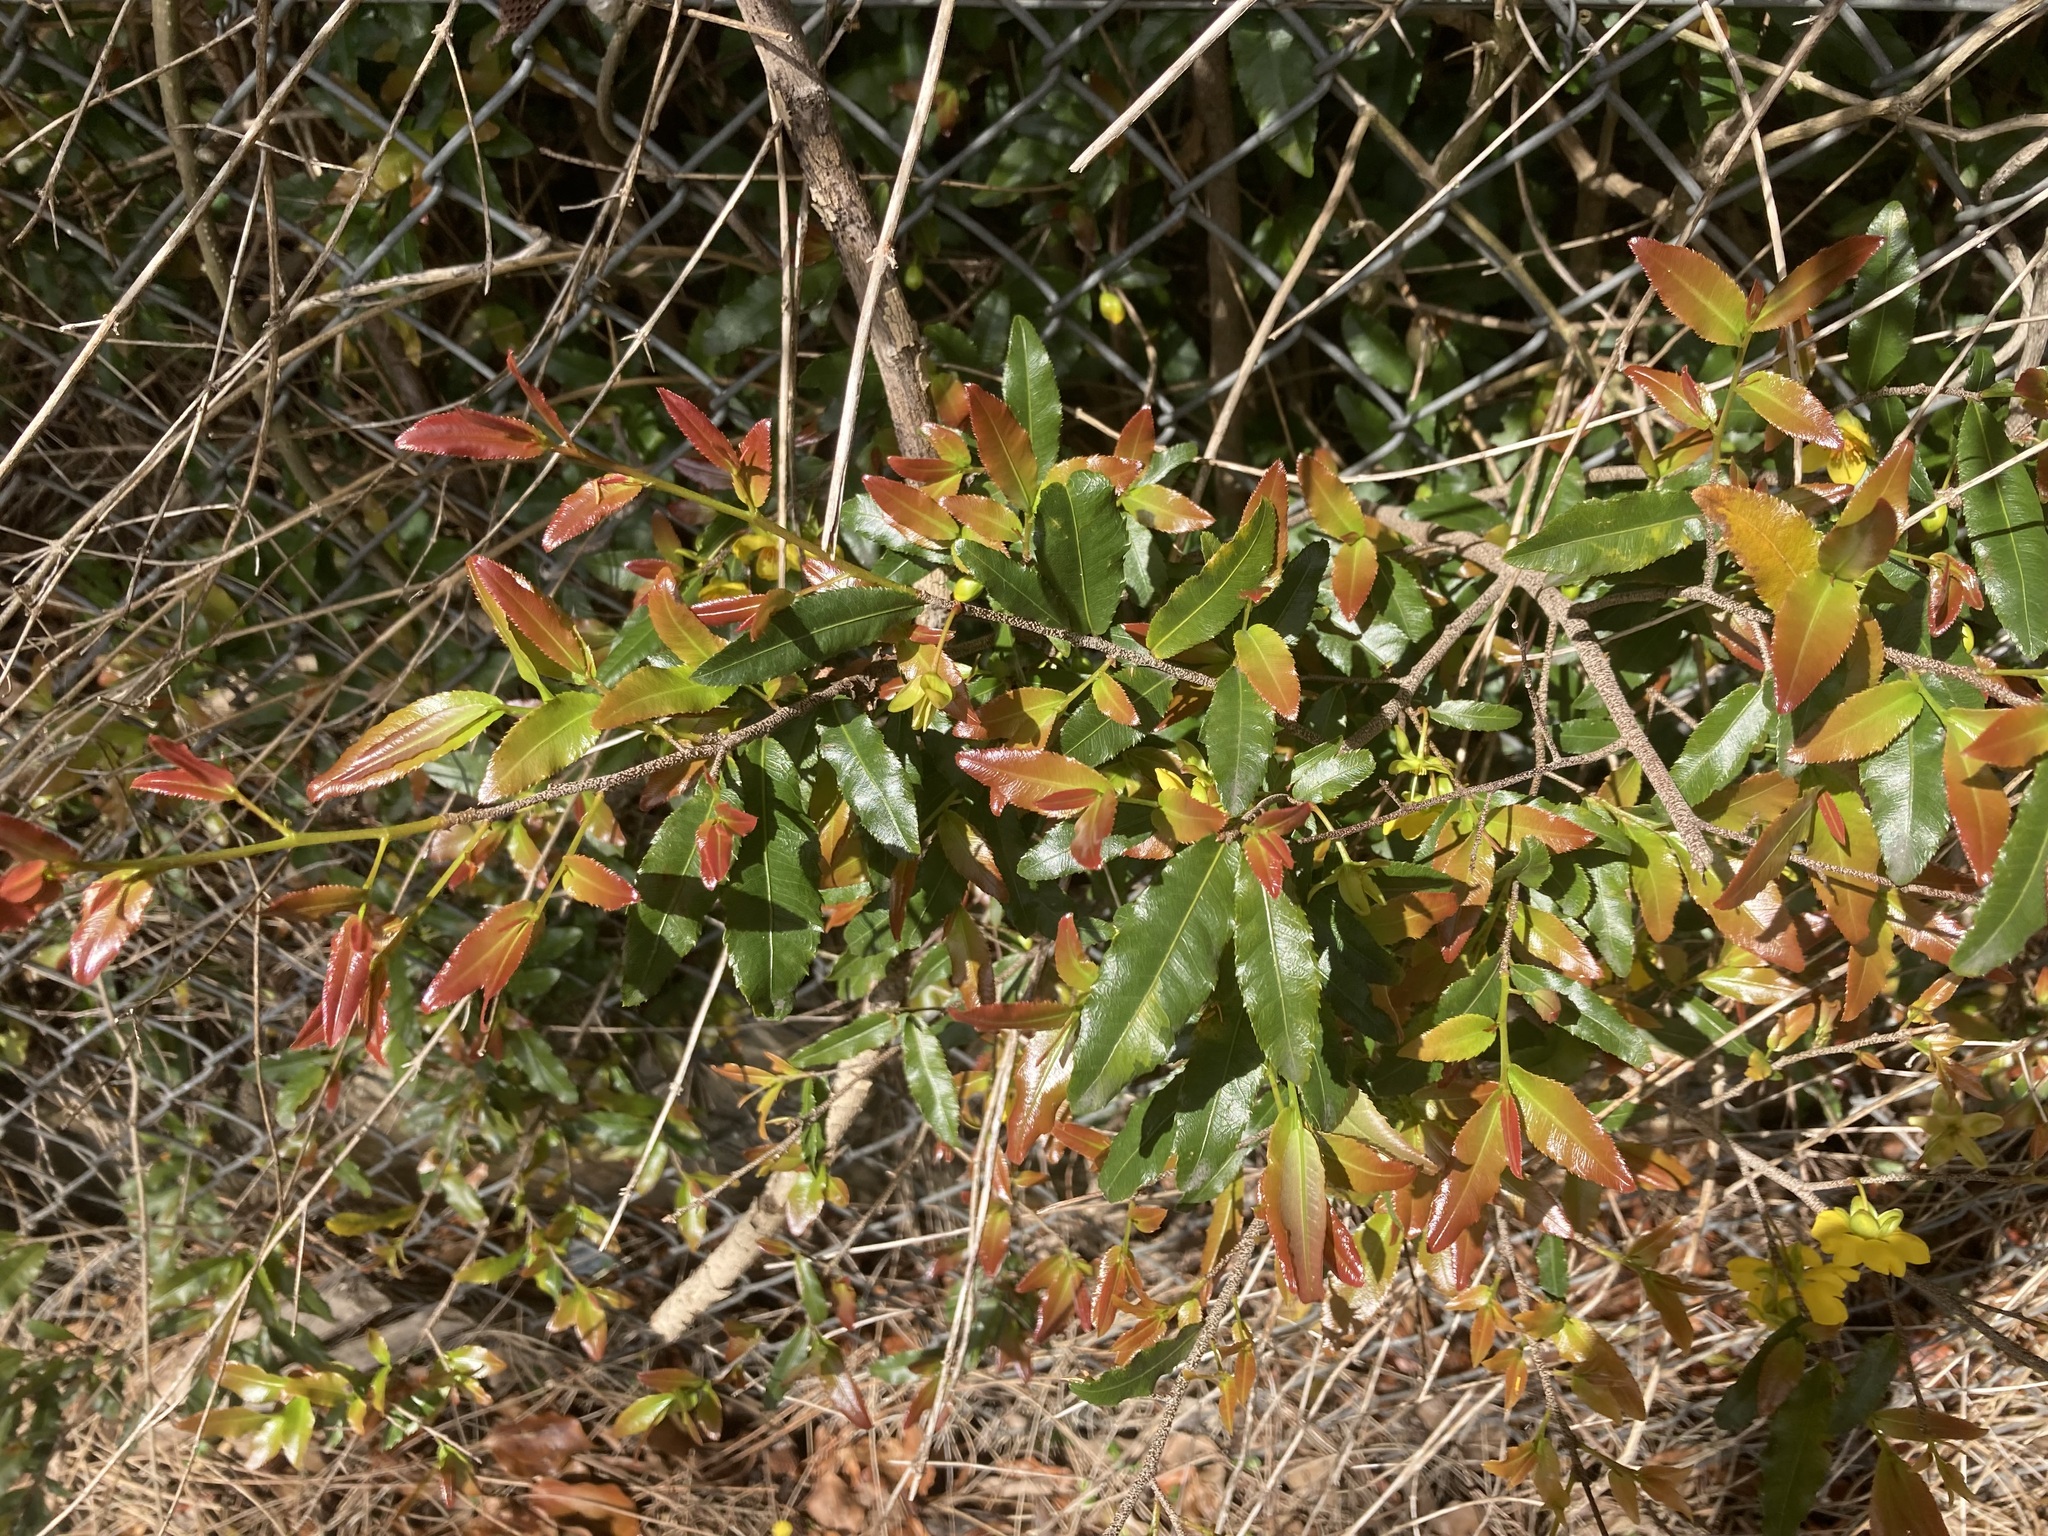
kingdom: Plantae
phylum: Tracheophyta
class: Magnoliopsida
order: Malpighiales
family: Ochnaceae
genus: Ochna
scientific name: Ochna serrulata
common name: Mickey mouse plant
